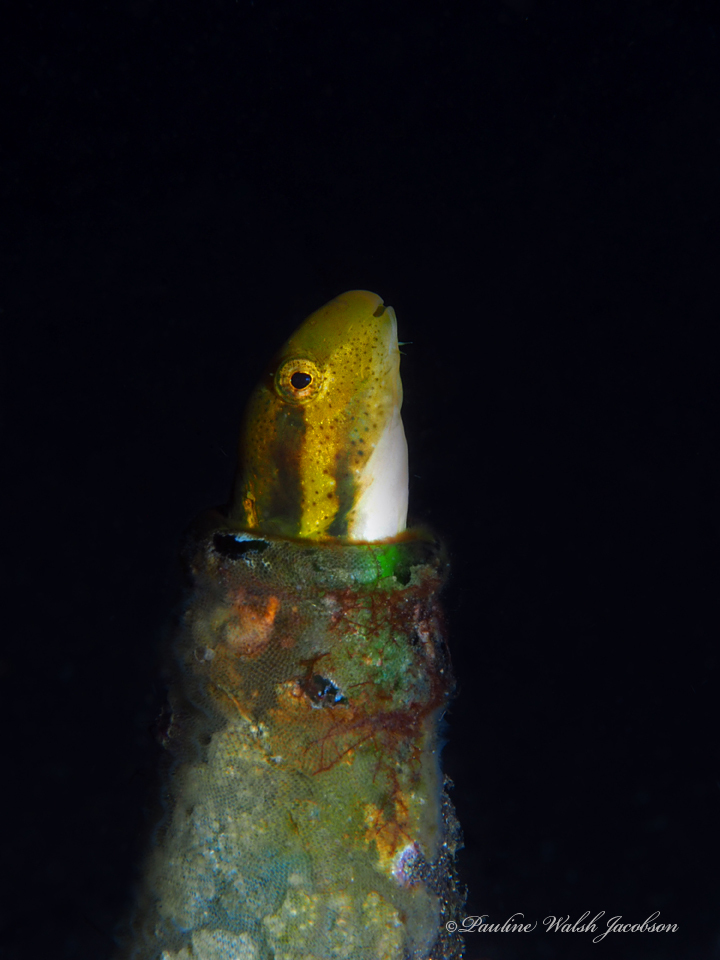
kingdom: Animalia
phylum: Chordata
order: Perciformes
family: Blenniidae
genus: Petroscirtes
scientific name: Petroscirtes breviceps
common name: Short-head sabretooth blenny
